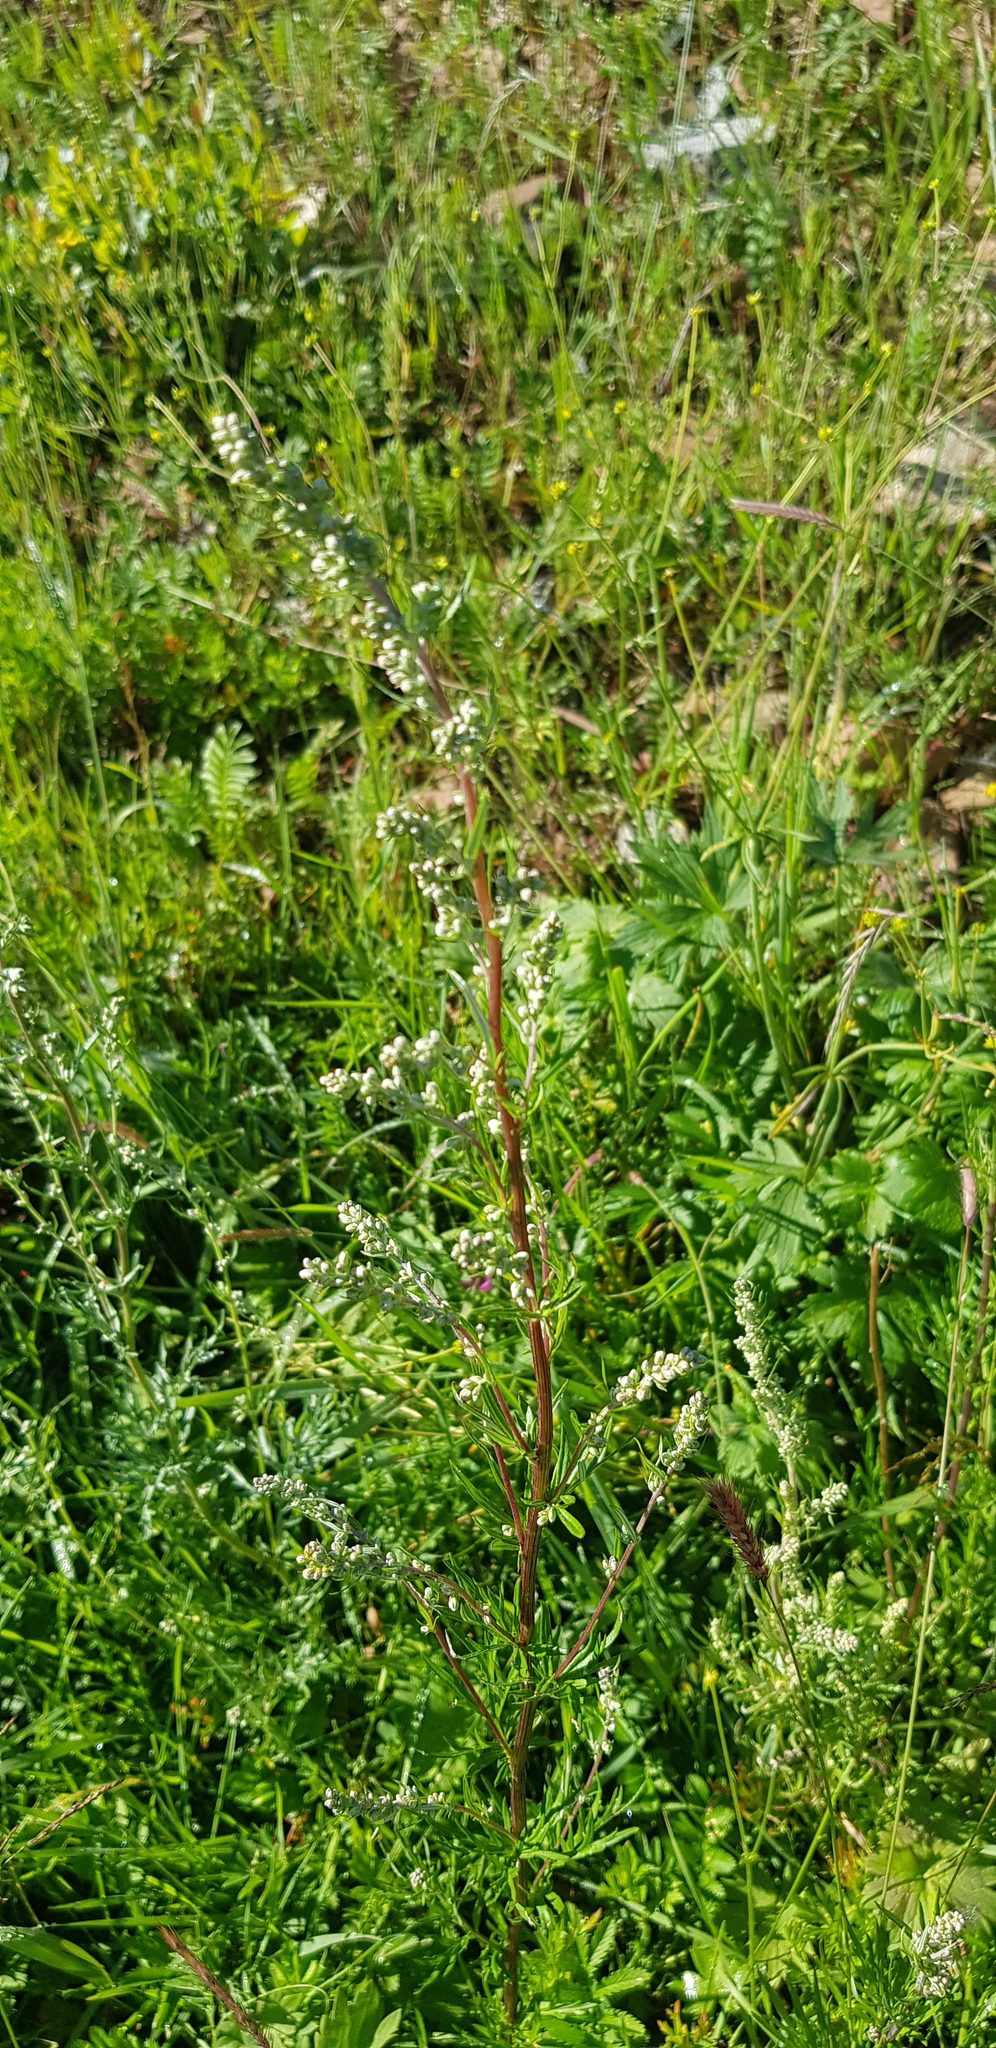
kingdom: Plantae
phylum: Tracheophyta
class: Magnoliopsida
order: Asterales
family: Asteraceae
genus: Artemisia
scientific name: Artemisia vulgaris
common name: Mugwort
